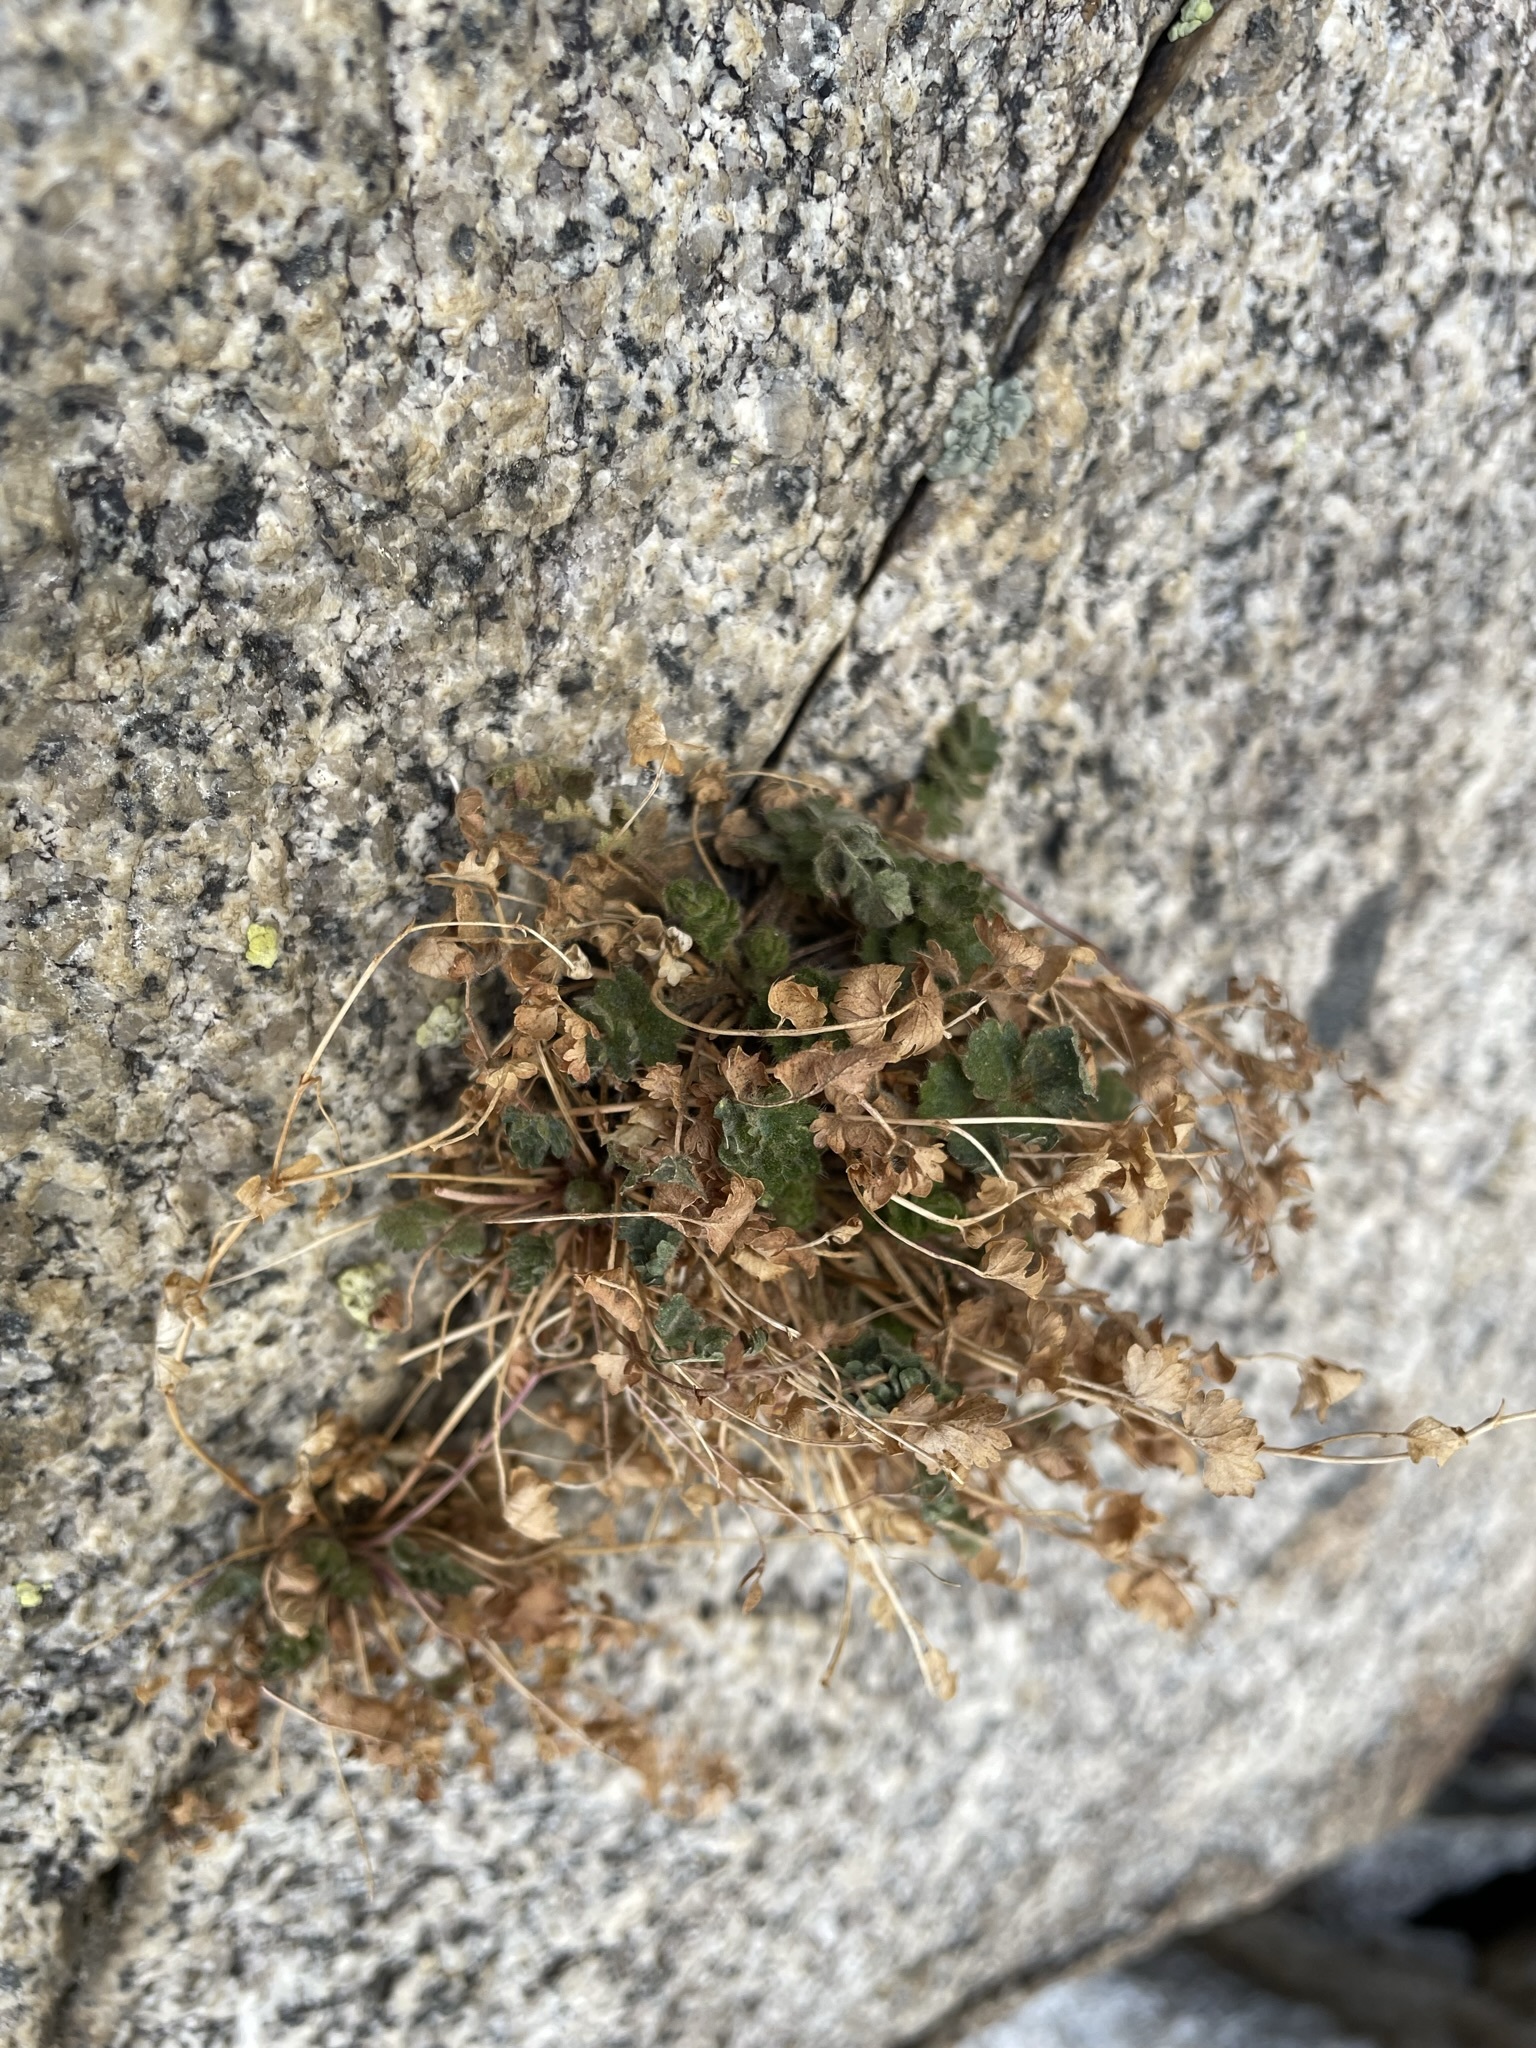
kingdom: Plantae
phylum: Tracheophyta
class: Magnoliopsida
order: Rosales
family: Rosaceae
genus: Potentilla
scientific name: Potentilla saxosa
